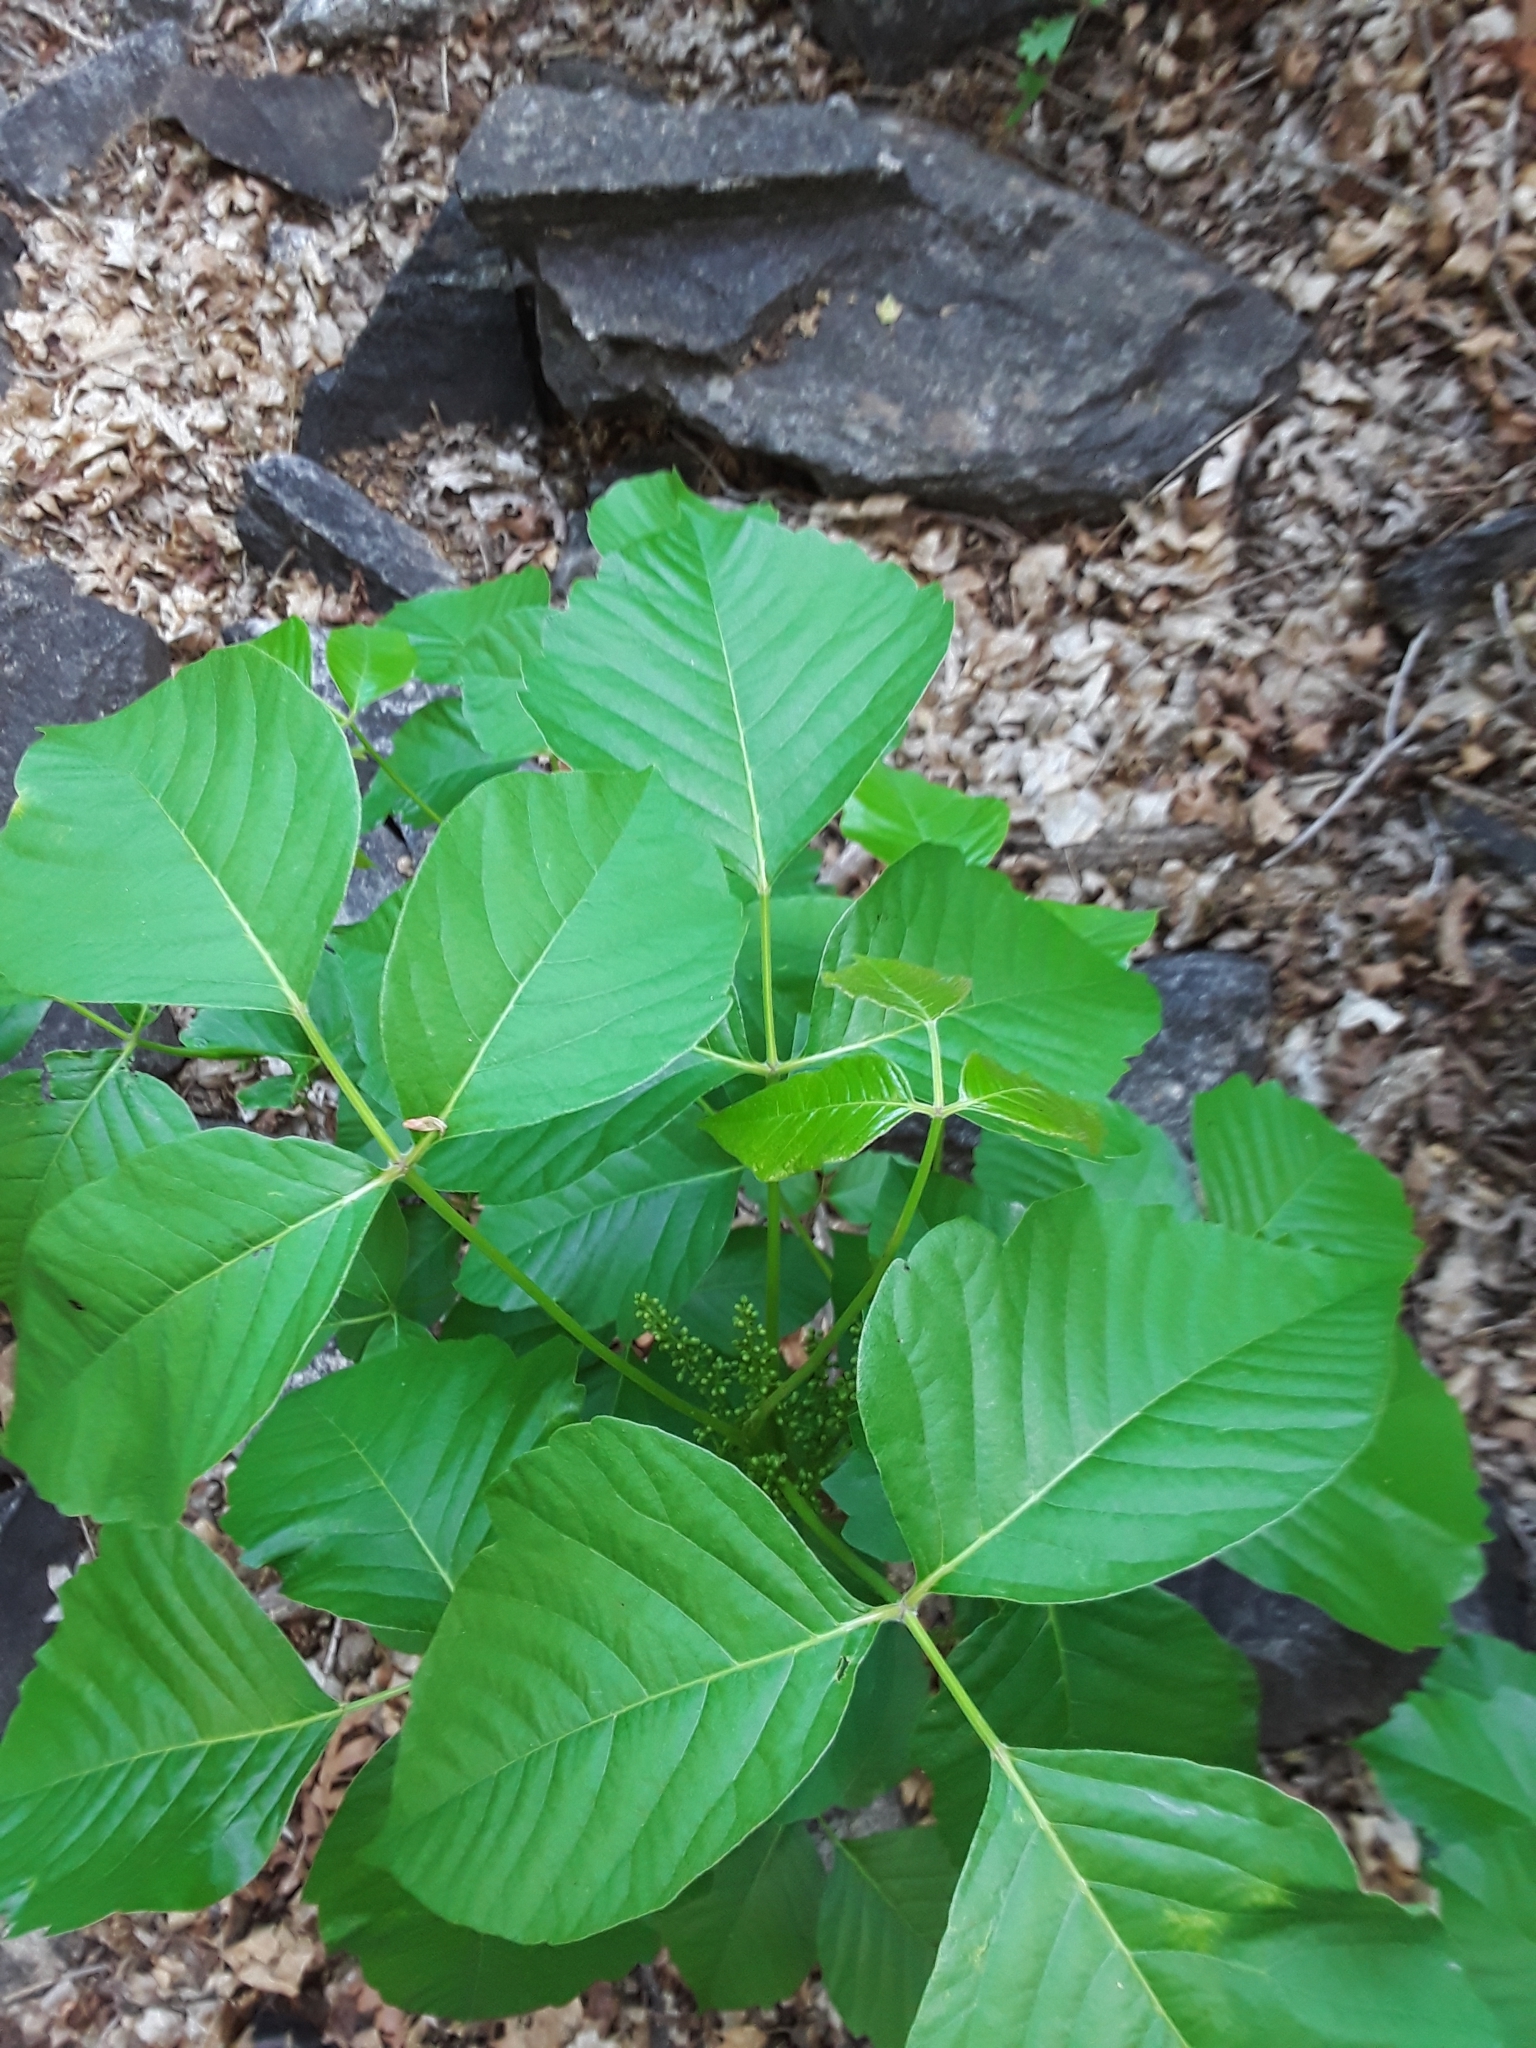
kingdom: Plantae
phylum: Tracheophyta
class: Magnoliopsida
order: Sapindales
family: Anacardiaceae
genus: Toxicodendron
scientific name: Toxicodendron rydbergii
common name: Rydberg's poison-ivy
